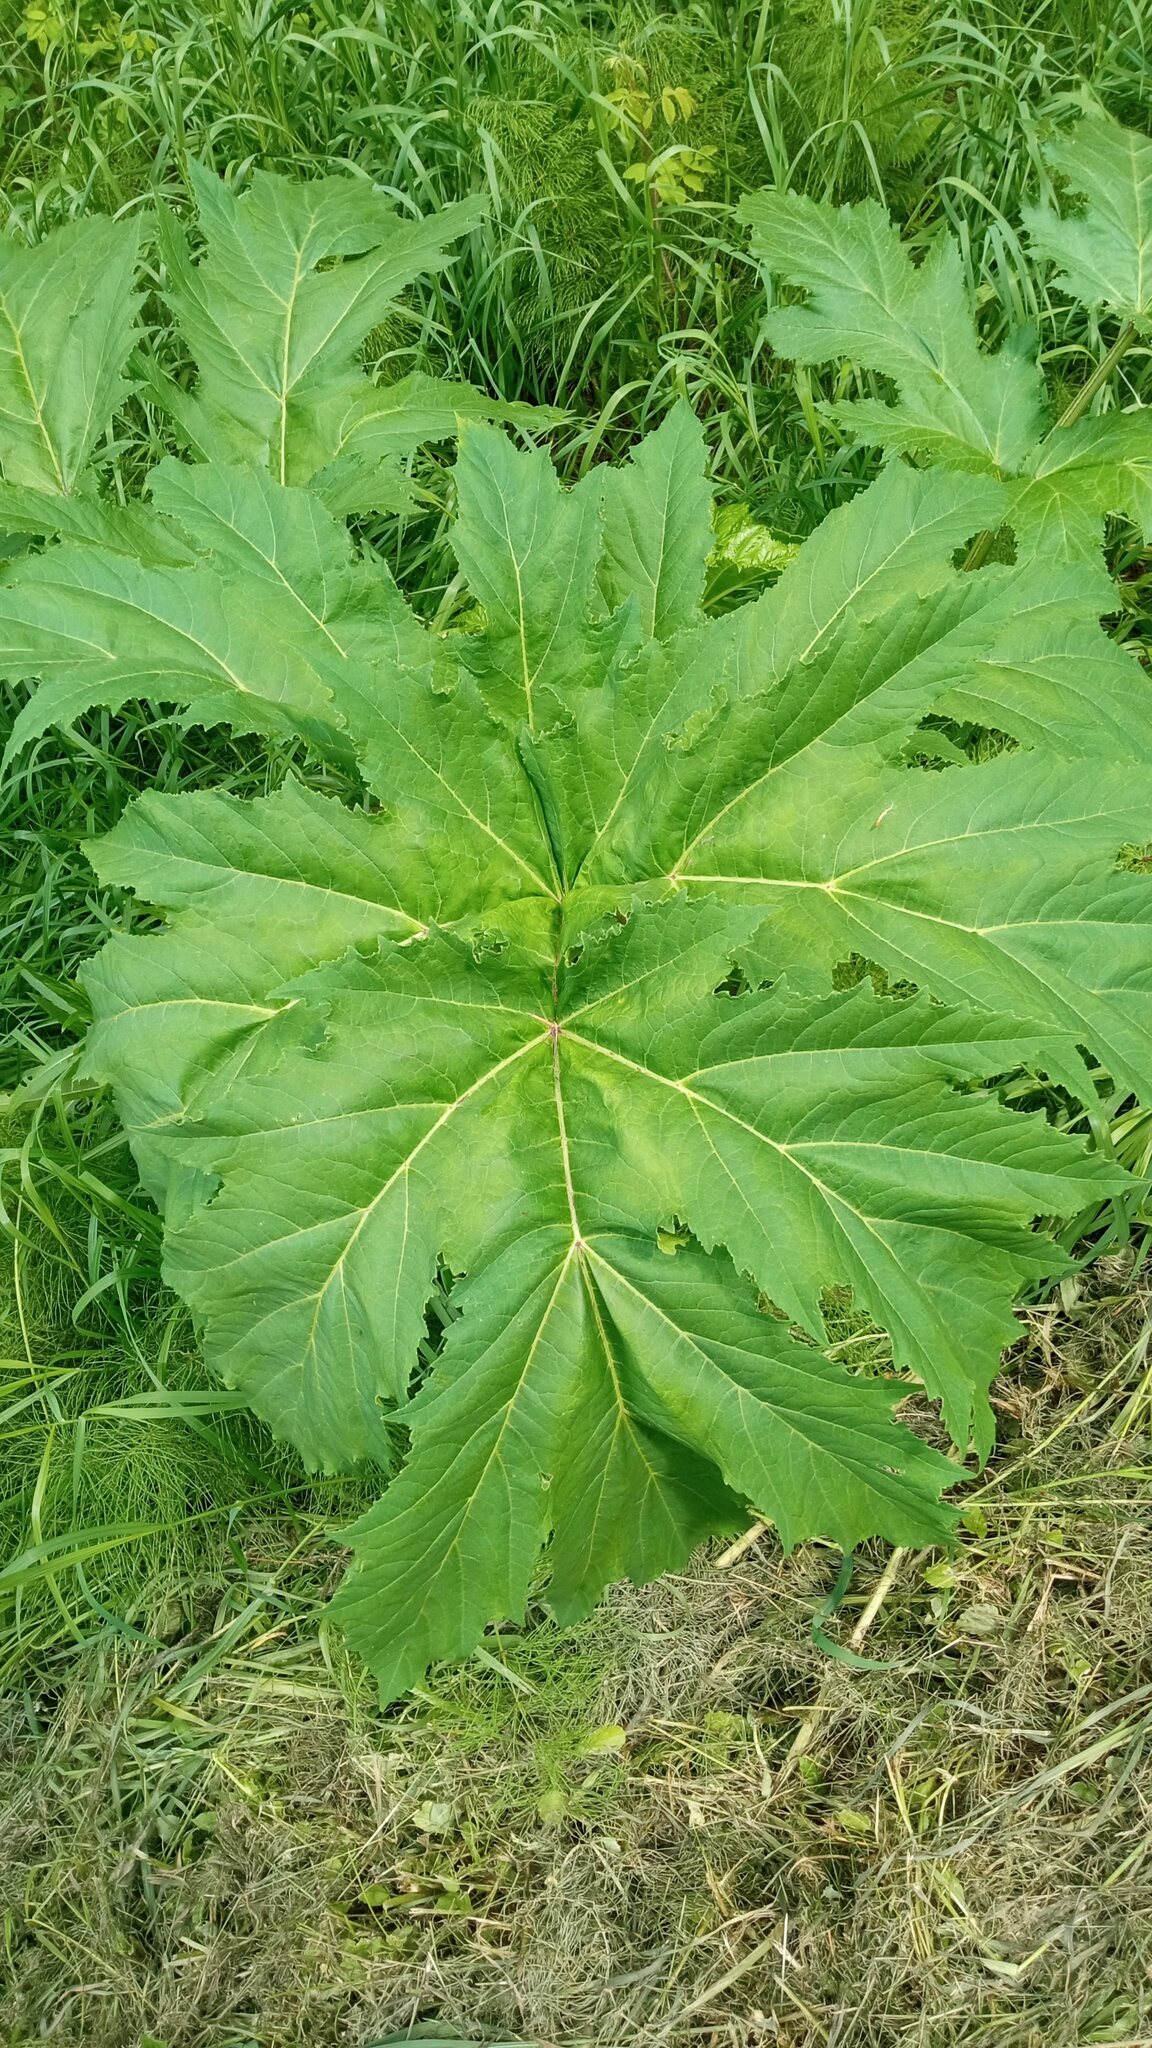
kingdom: Plantae
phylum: Tracheophyta
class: Magnoliopsida
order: Apiales
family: Apiaceae
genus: Heracleum
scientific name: Heracleum sosnowskyi
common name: Sosnowsky's hogweed
